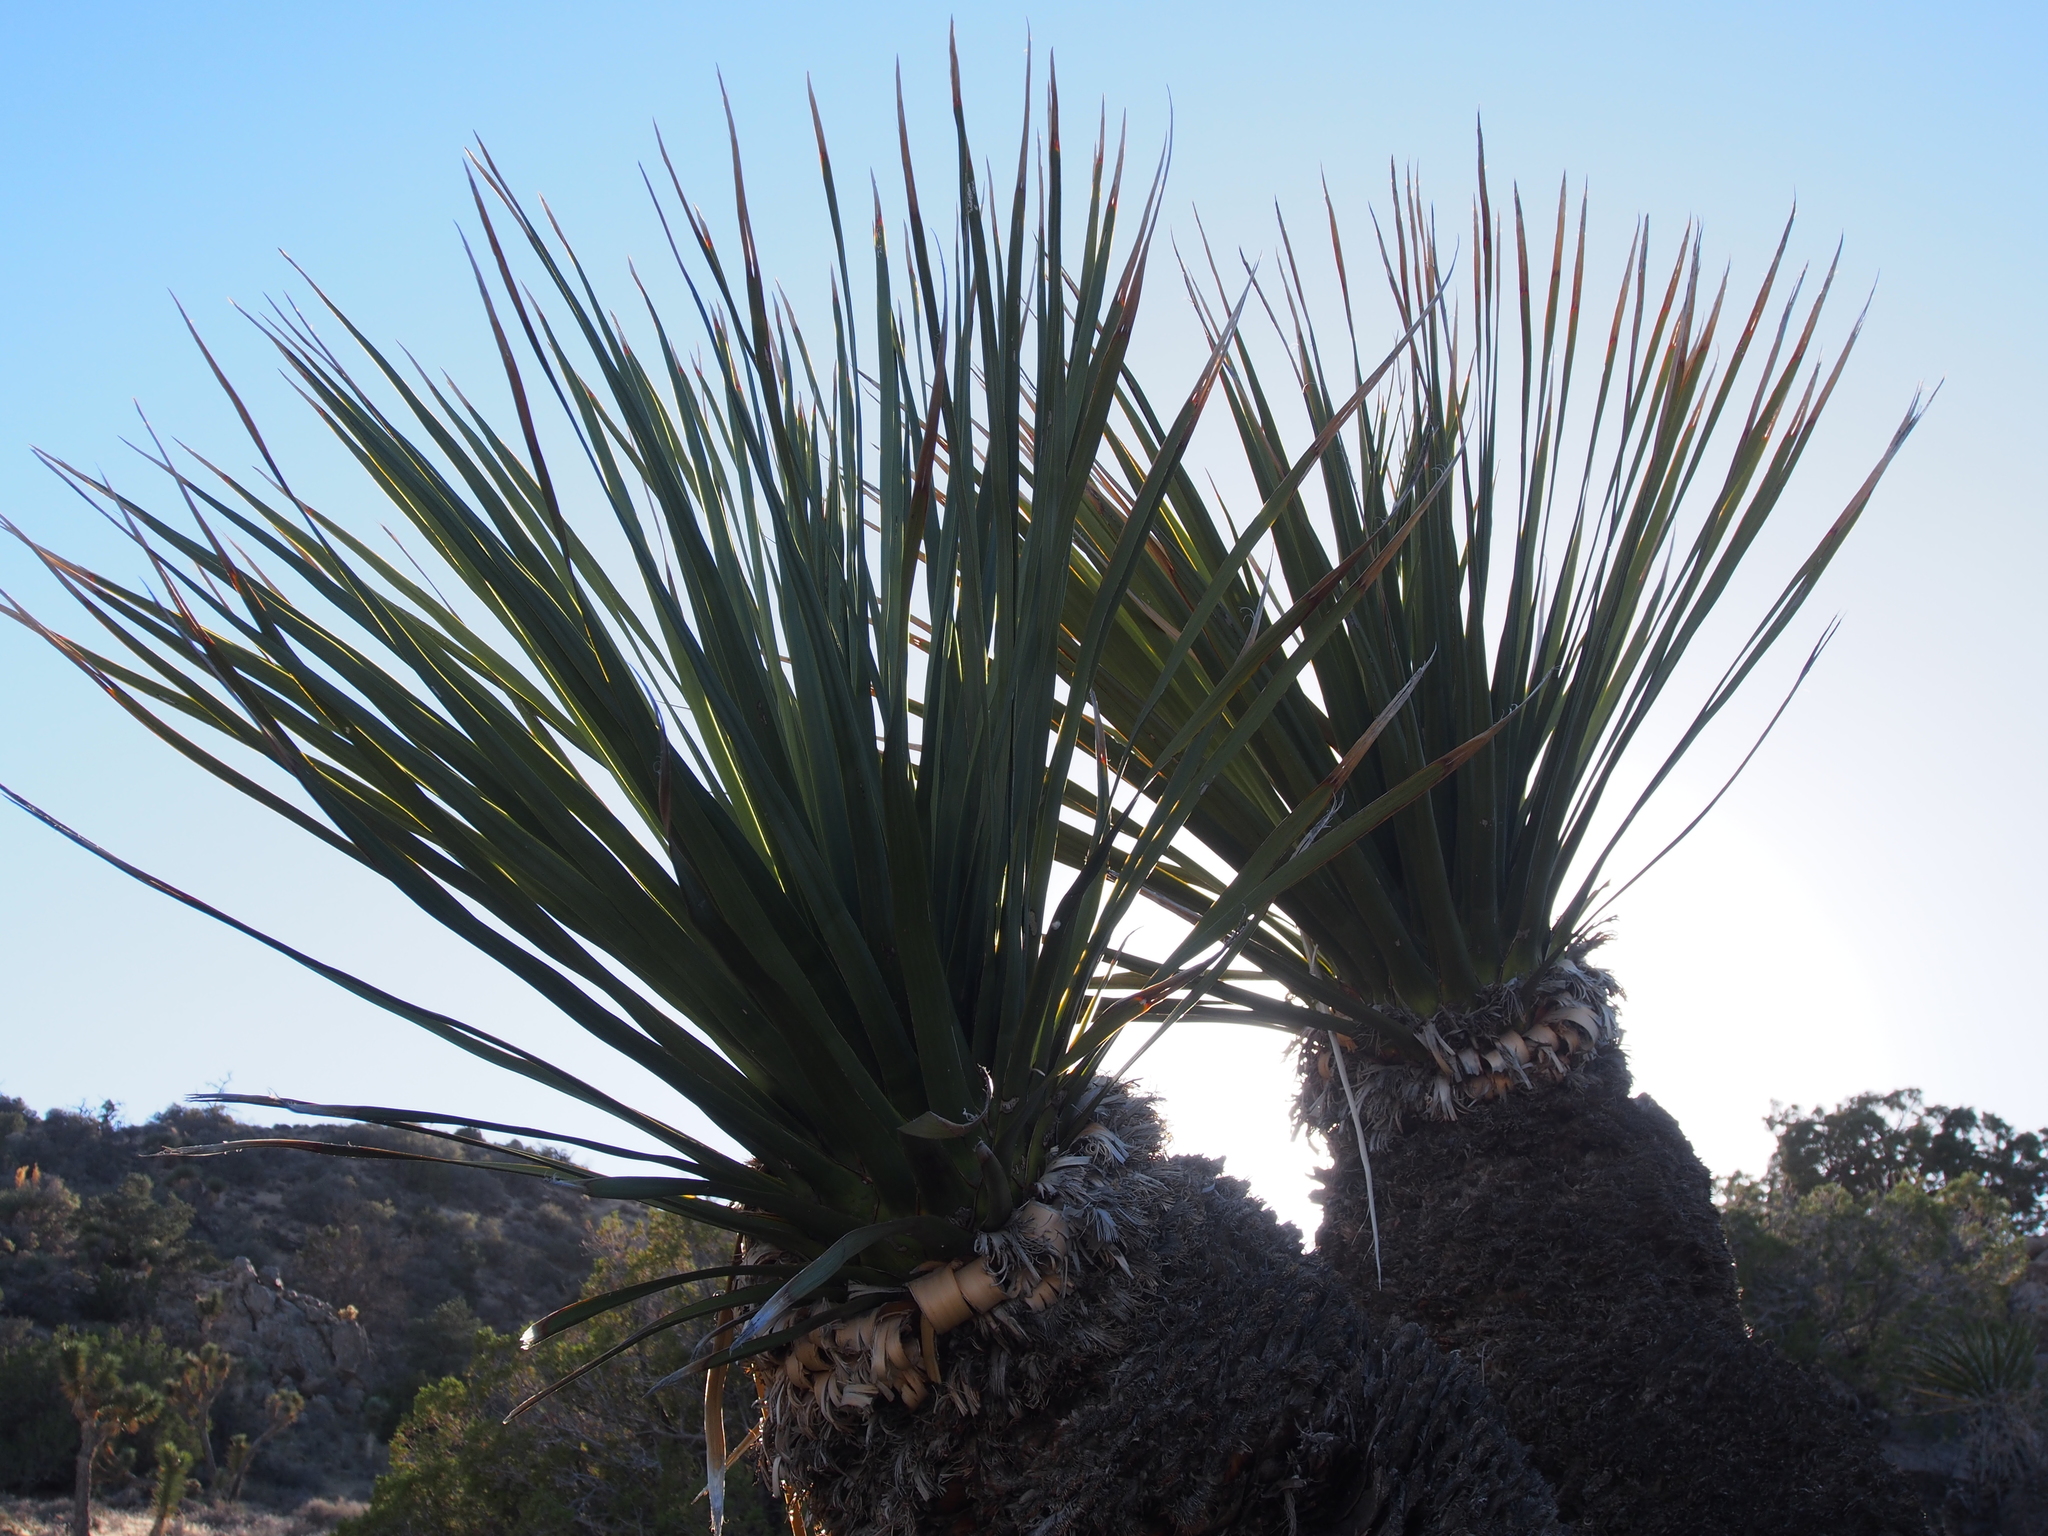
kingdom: Plantae
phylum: Tracheophyta
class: Liliopsida
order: Asparagales
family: Asparagaceae
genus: Nolina
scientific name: Nolina parryi
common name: Parry nolina
